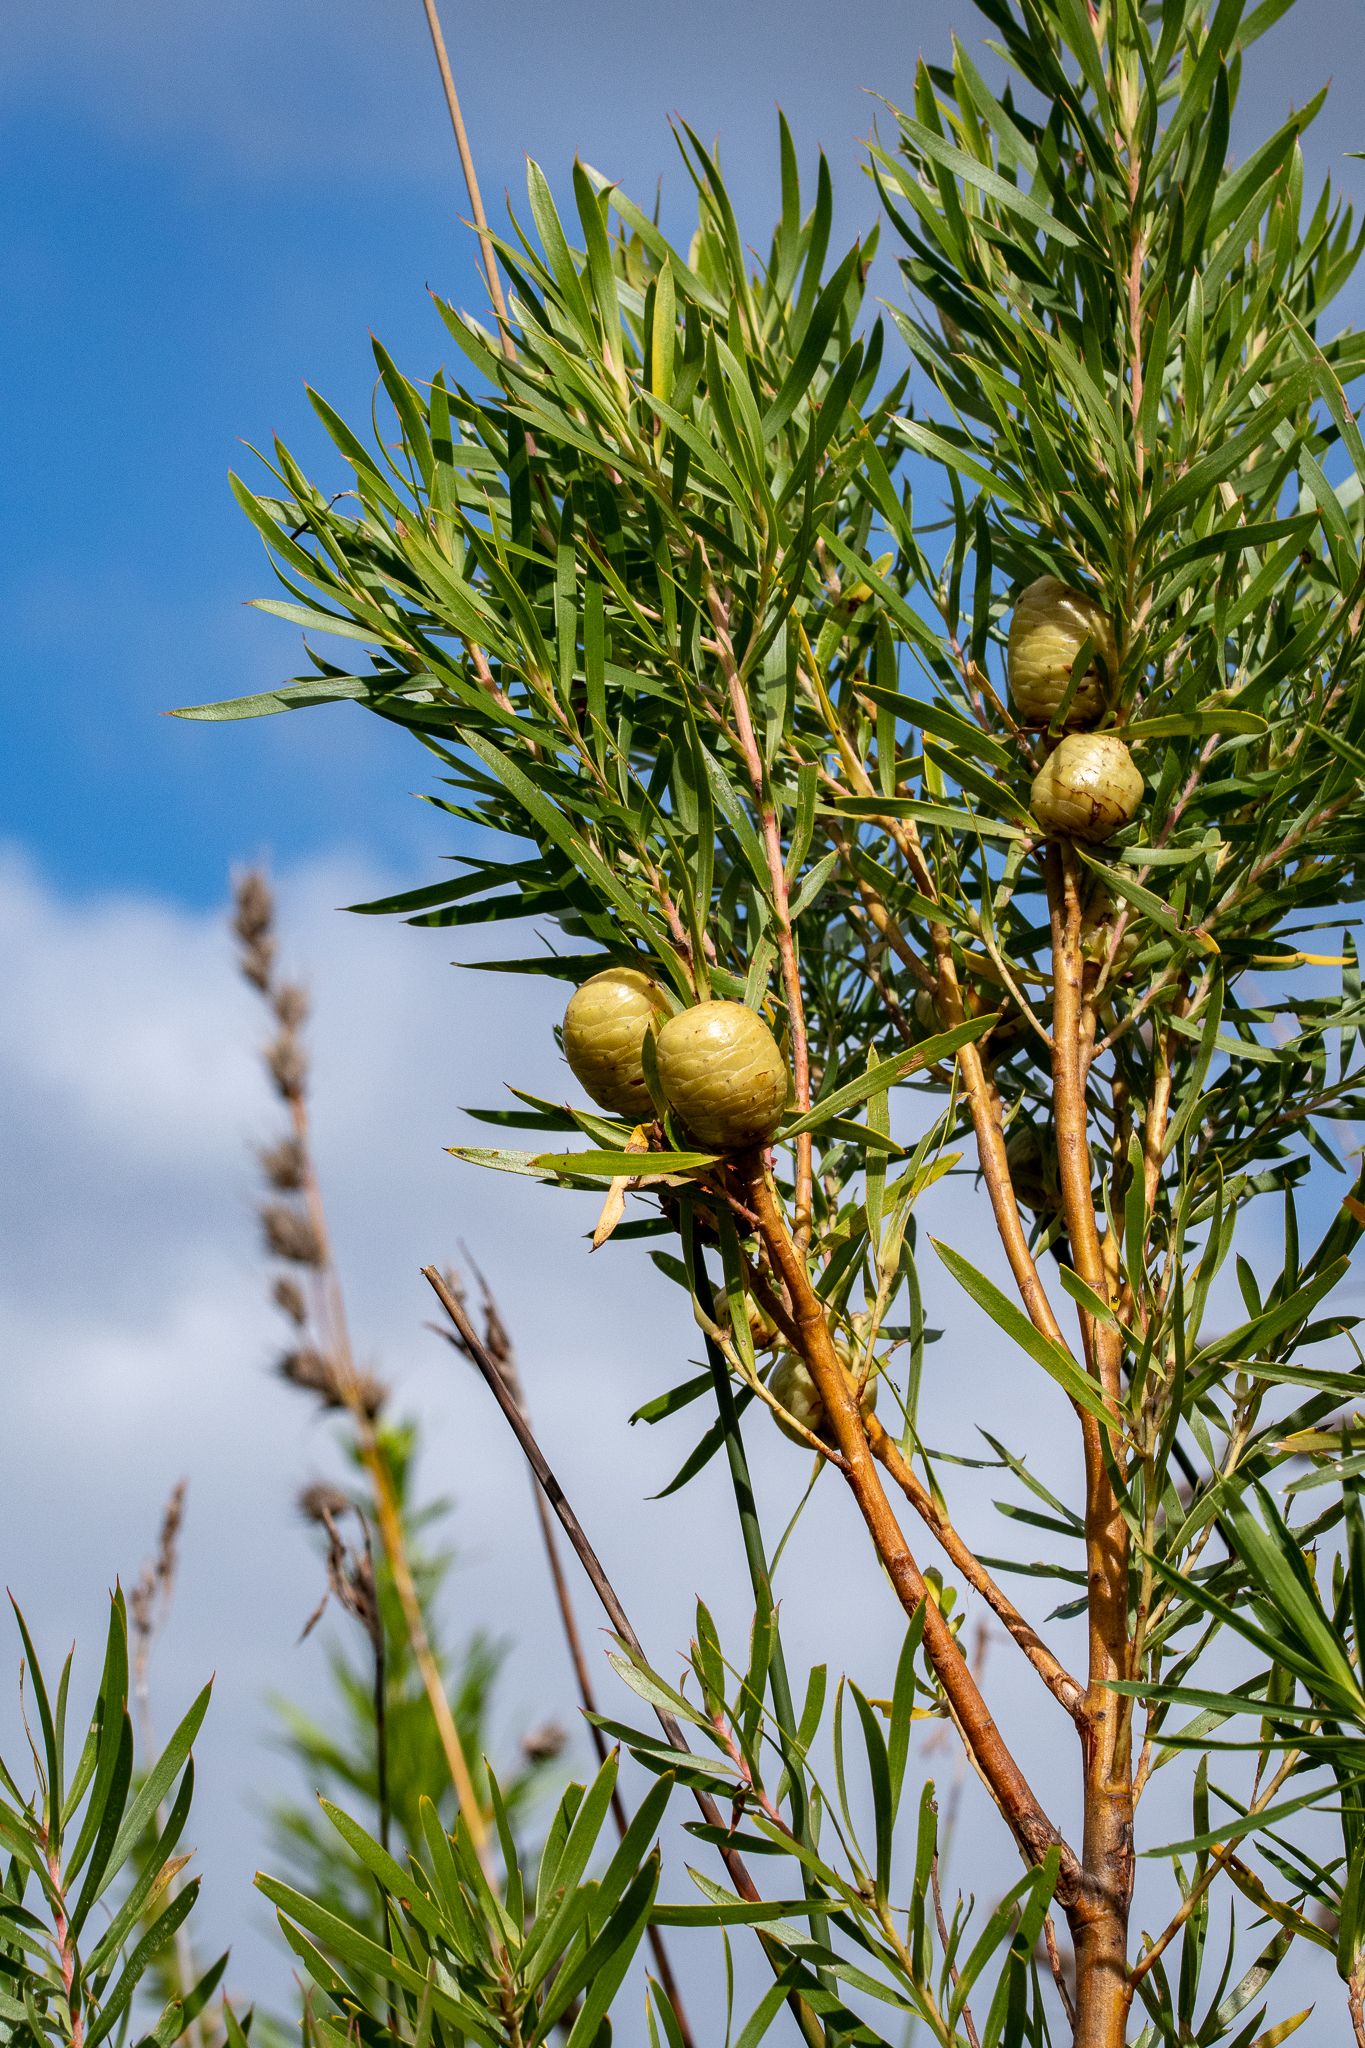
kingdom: Plantae
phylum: Tracheophyta
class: Magnoliopsida
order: Proteales
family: Proteaceae
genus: Leucadendron
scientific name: Leucadendron salicifolium
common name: Common stream conebush
